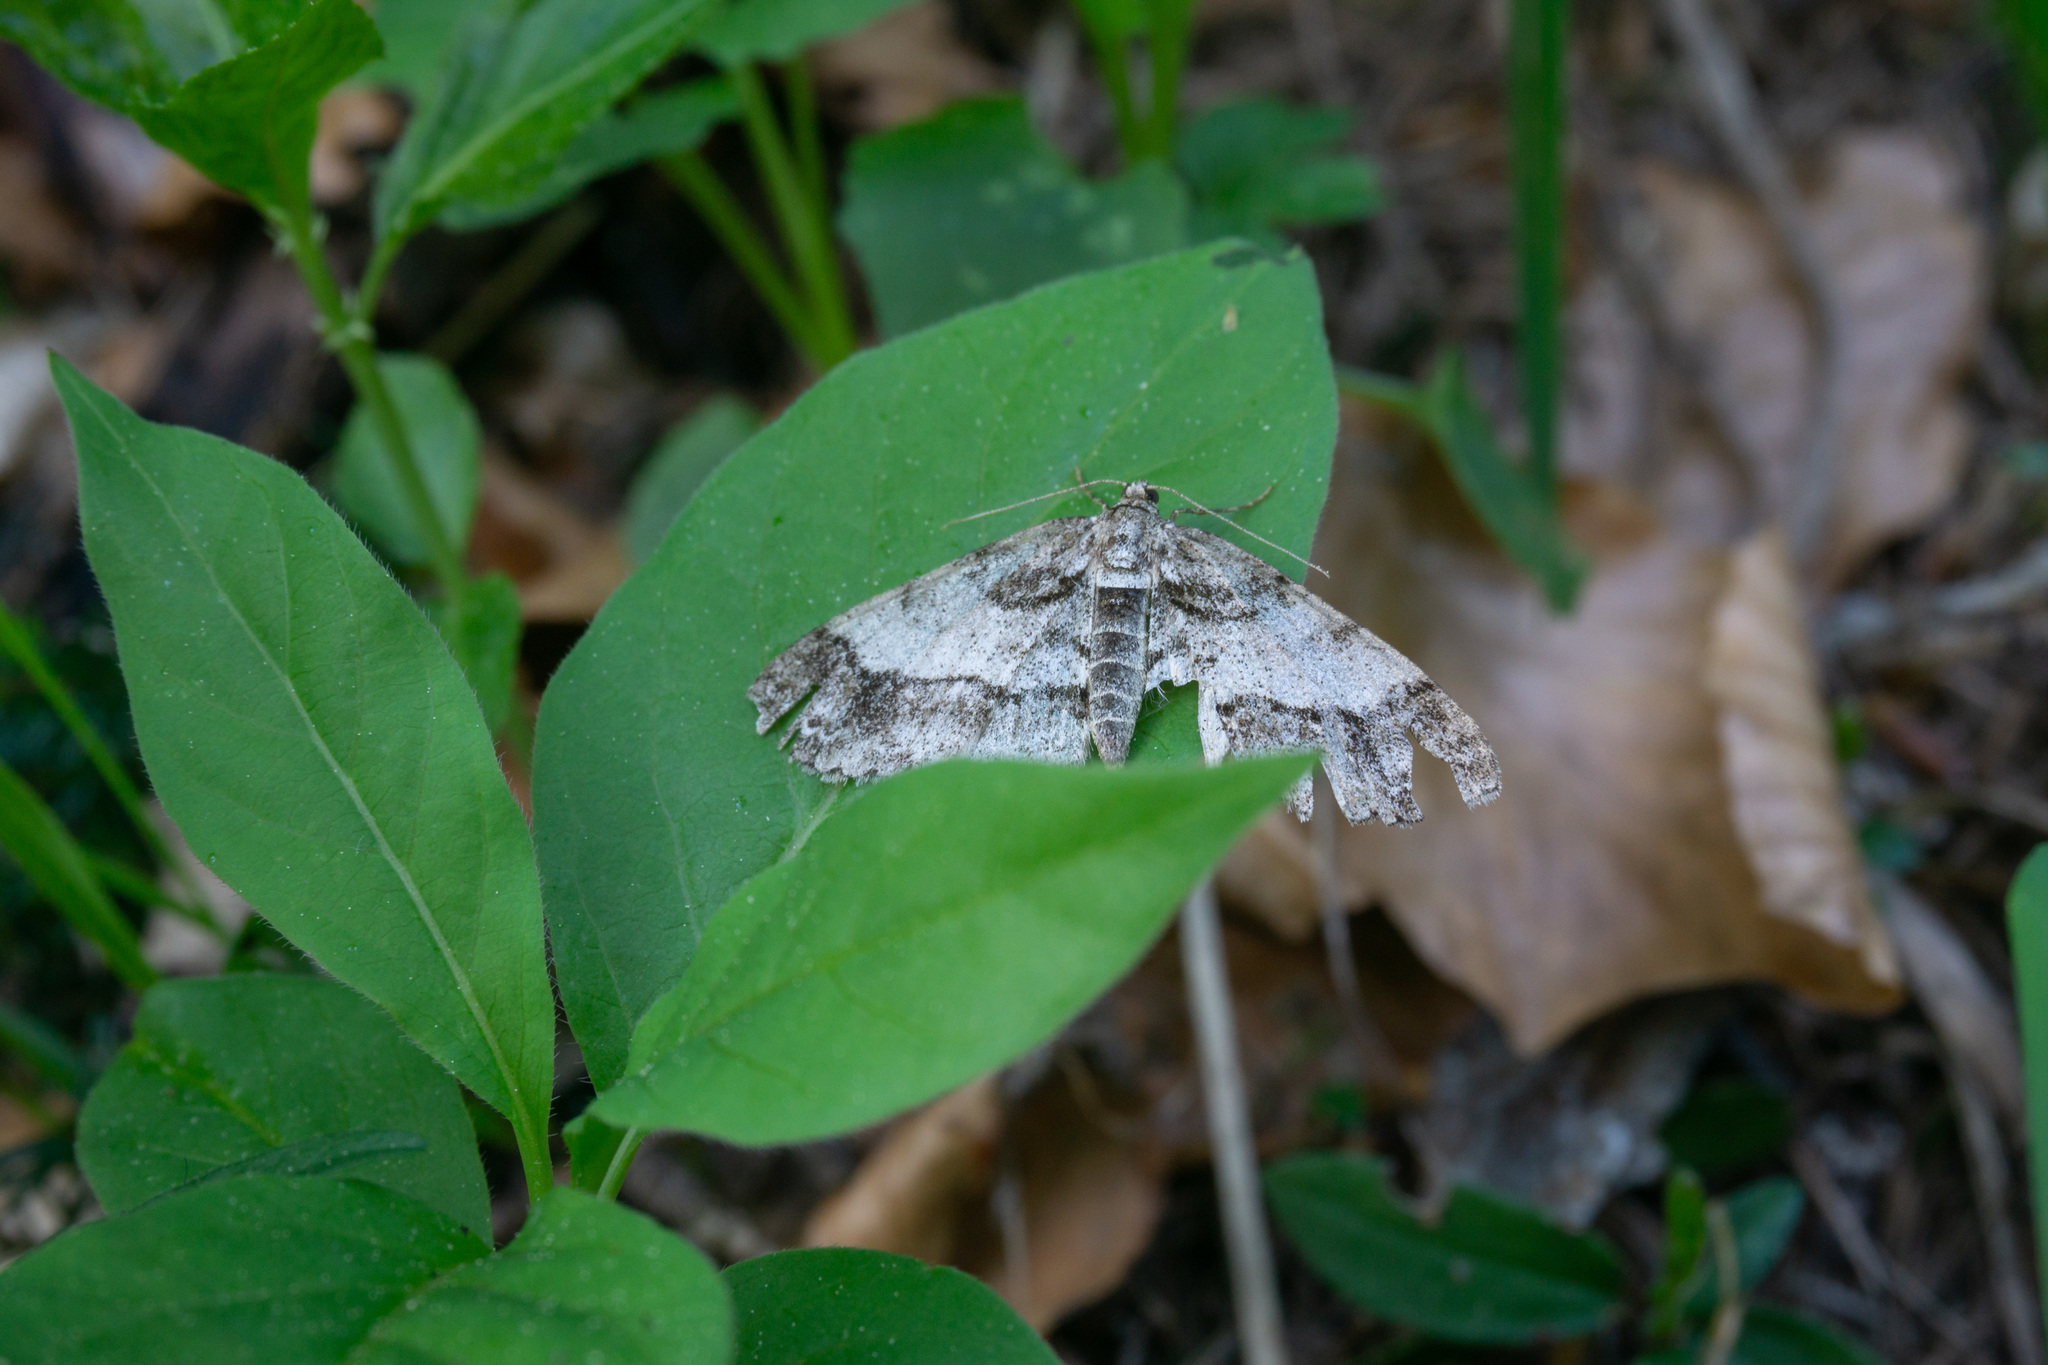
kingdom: Animalia
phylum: Arthropoda
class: Insecta
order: Lepidoptera
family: Geometridae
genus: Paradarisa
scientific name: Paradarisa consonaria
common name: Square spot
